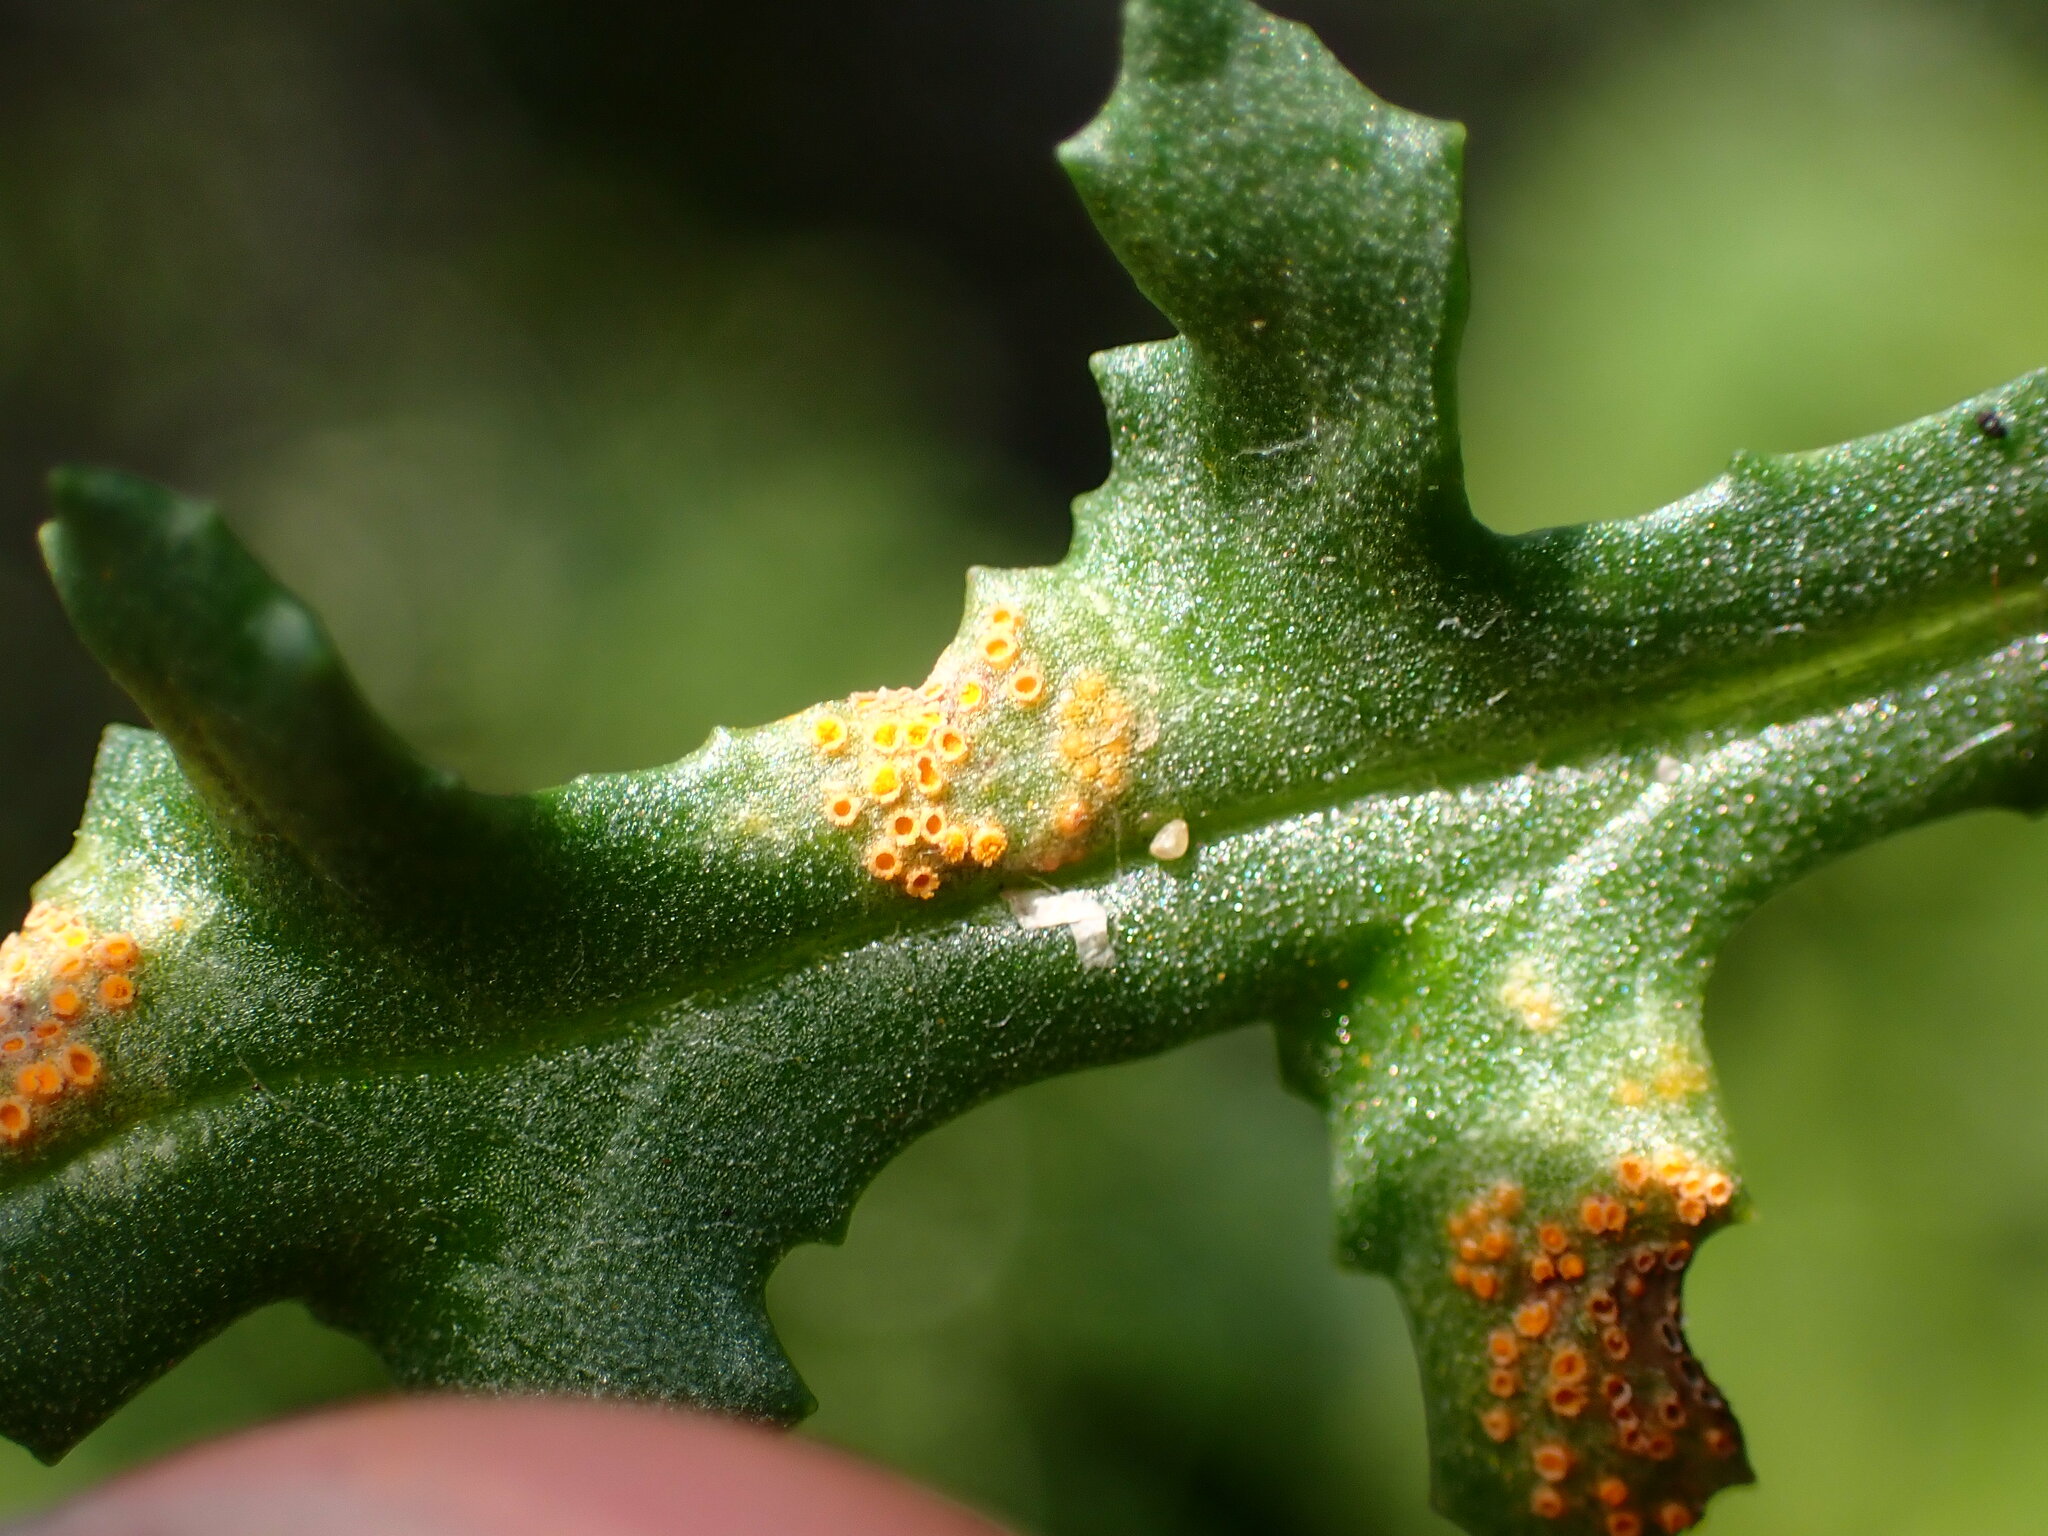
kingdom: Fungi
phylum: Basidiomycota
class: Pucciniomycetes
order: Pucciniales
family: Pucciniaceae
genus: Puccinia
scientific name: Puccinia lagenophorae
